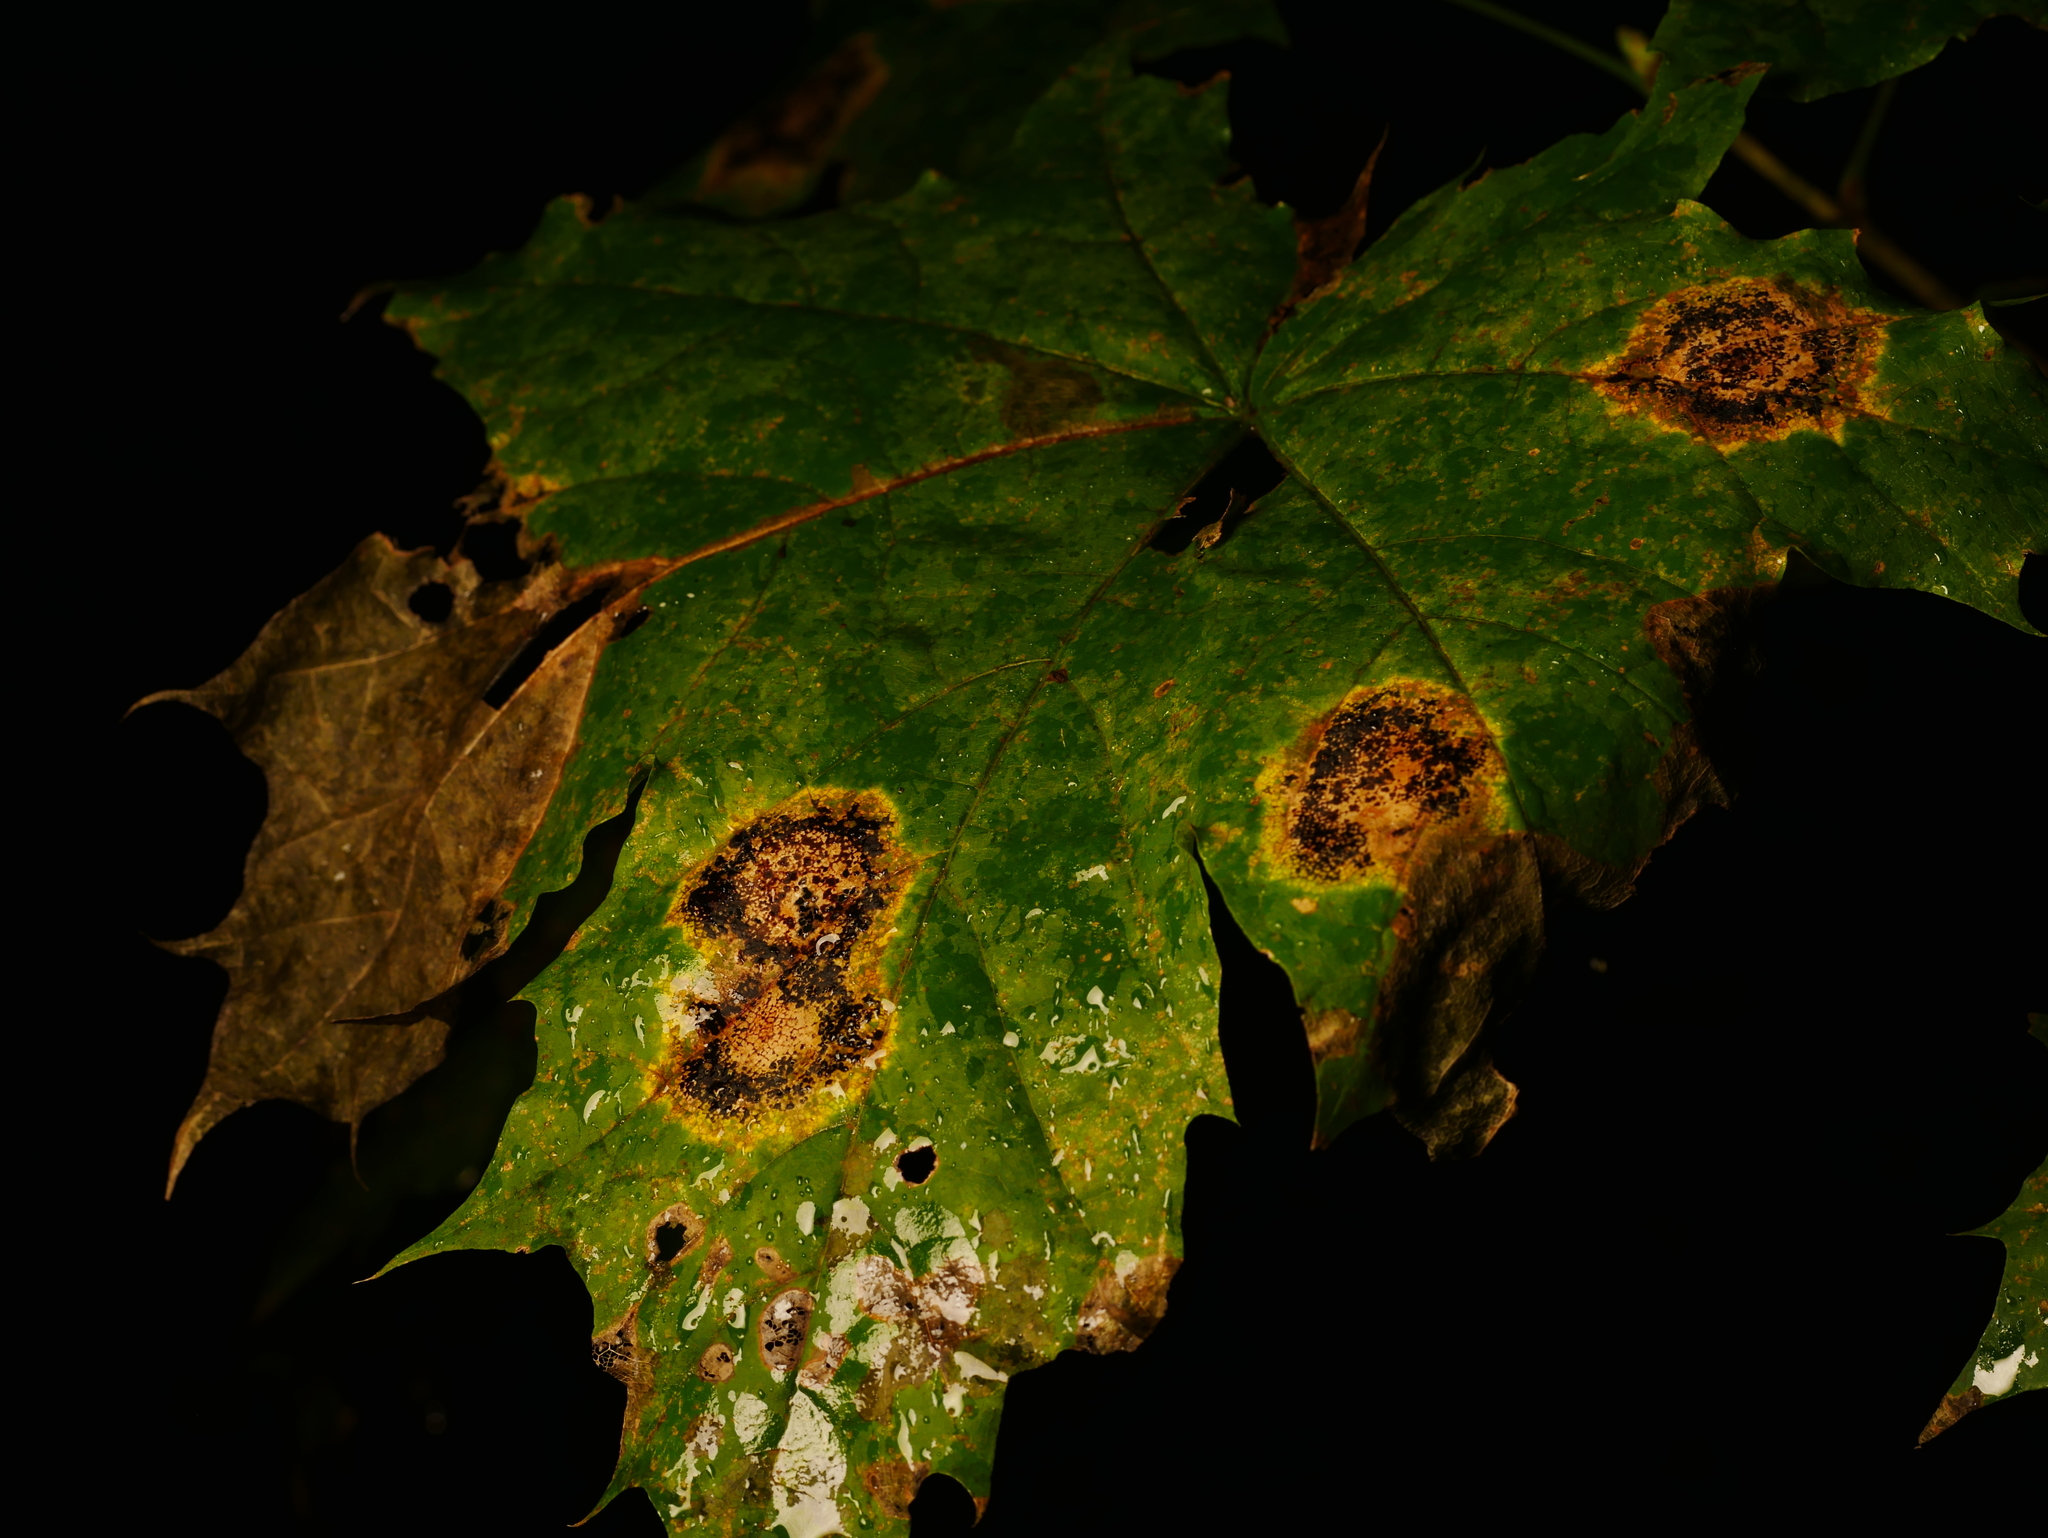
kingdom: Fungi
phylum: Ascomycota
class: Leotiomycetes
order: Rhytismatales
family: Rhytismataceae
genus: Rhytisma
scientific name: Rhytisma acerinum
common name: European tar spot
